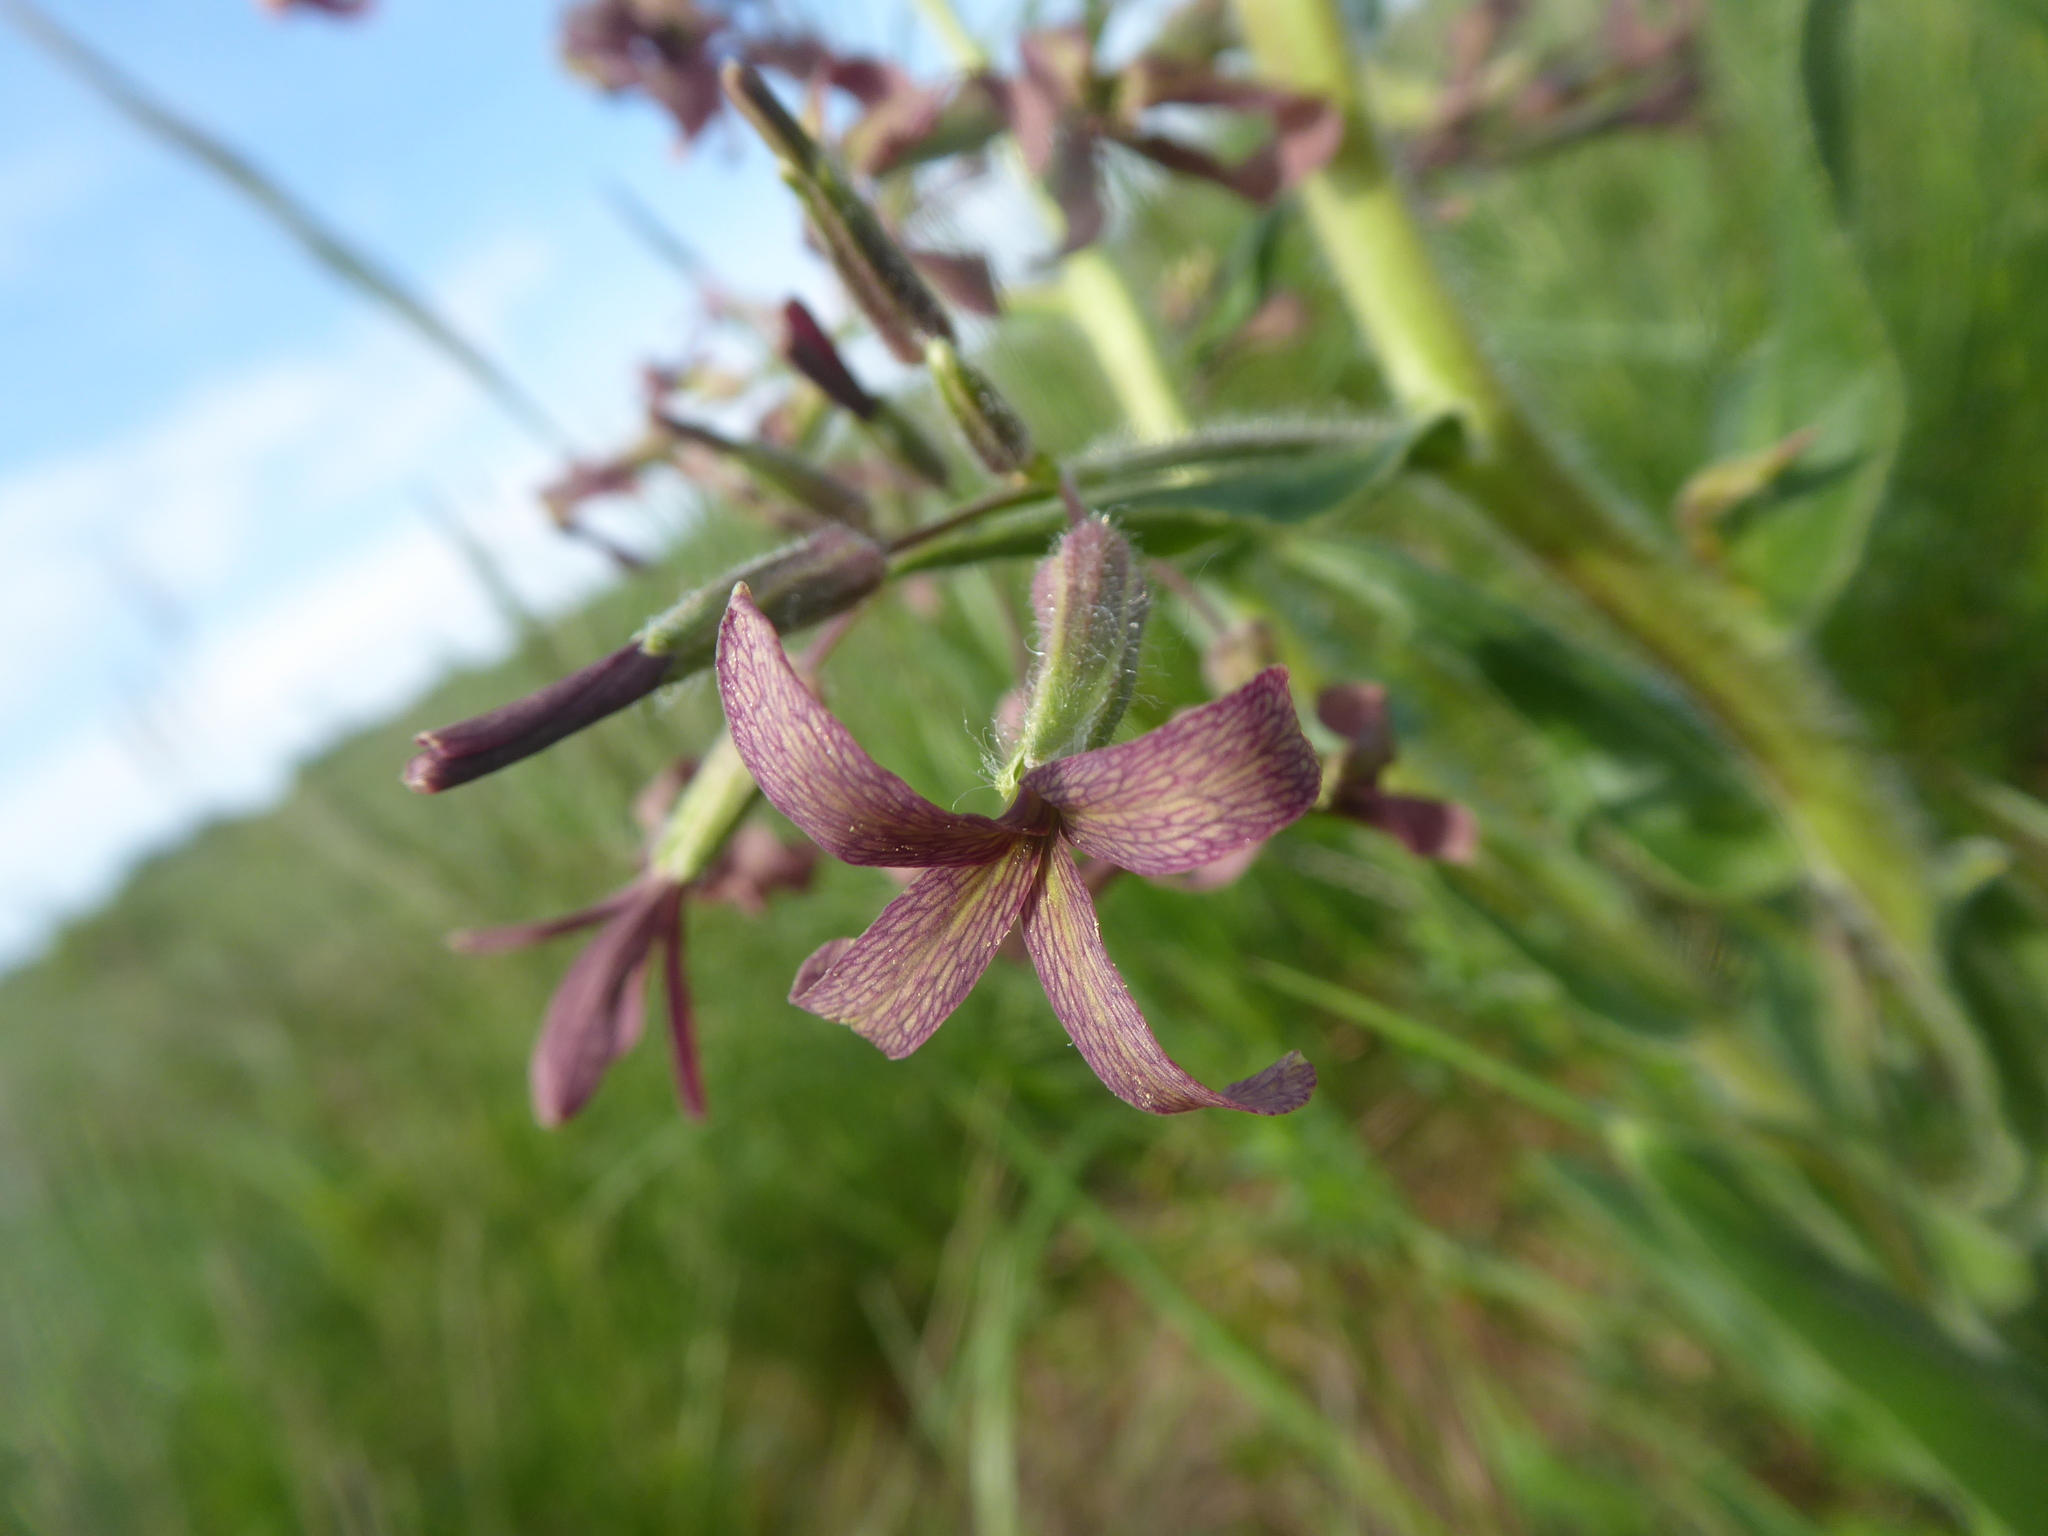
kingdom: Plantae
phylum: Tracheophyta
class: Magnoliopsida
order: Brassicales
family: Brassicaceae
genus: Hesperis
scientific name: Hesperis tristis
